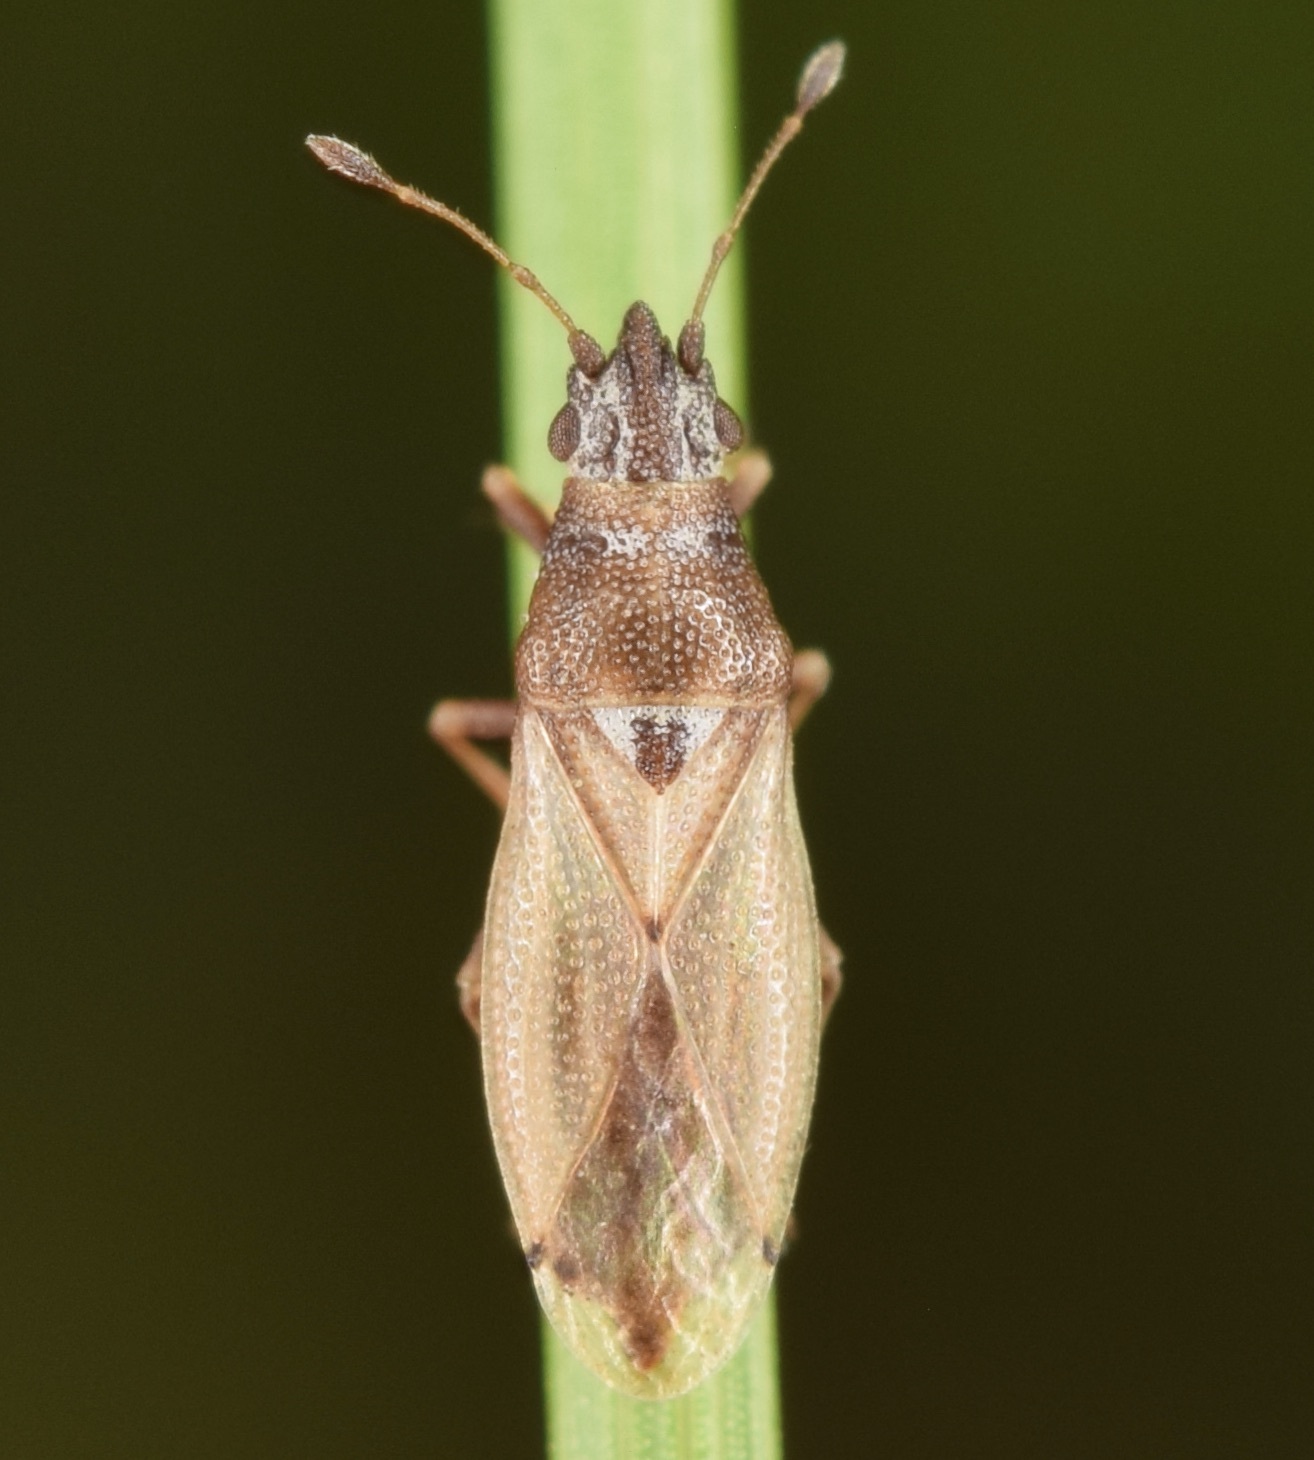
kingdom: Animalia
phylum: Arthropoda
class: Insecta
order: Hemiptera
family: Cymidae
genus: Cymus
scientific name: Cymus angustatus
